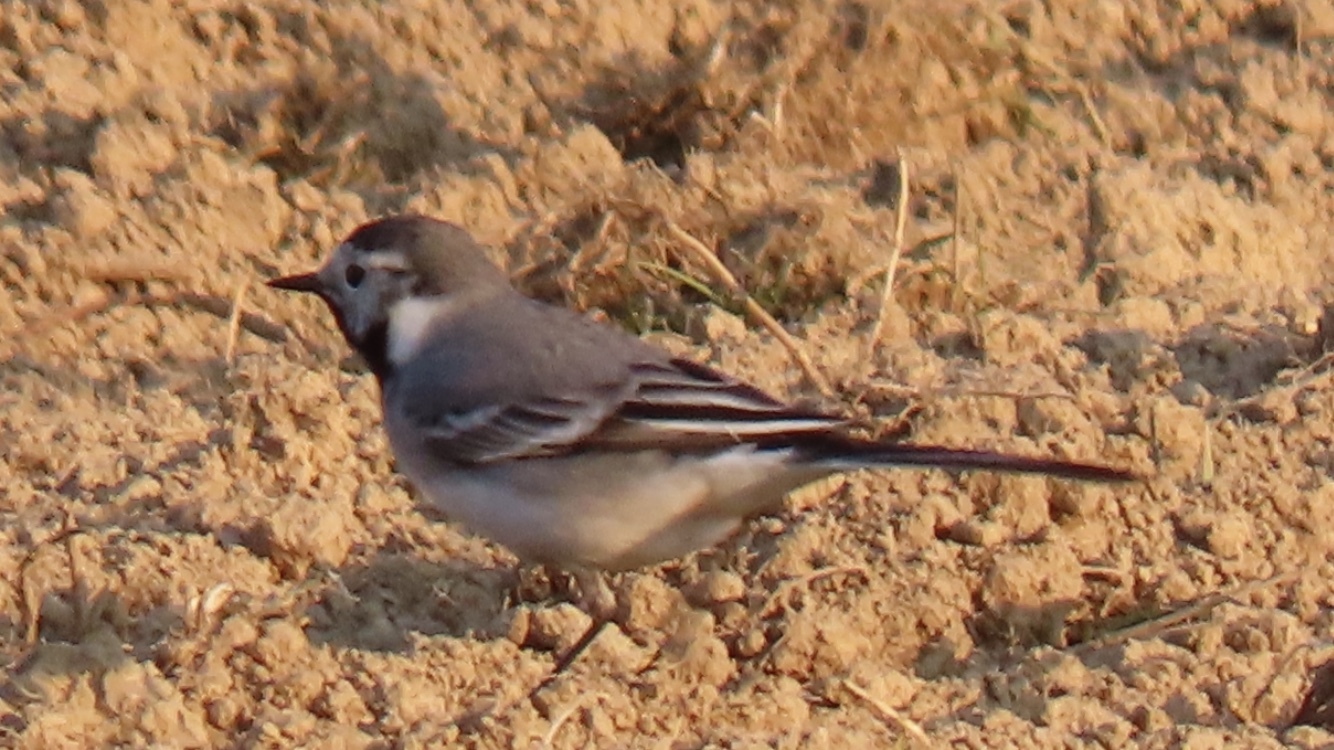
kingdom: Animalia
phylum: Chordata
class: Aves
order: Passeriformes
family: Motacillidae
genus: Motacilla
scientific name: Motacilla alba
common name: White wagtail
